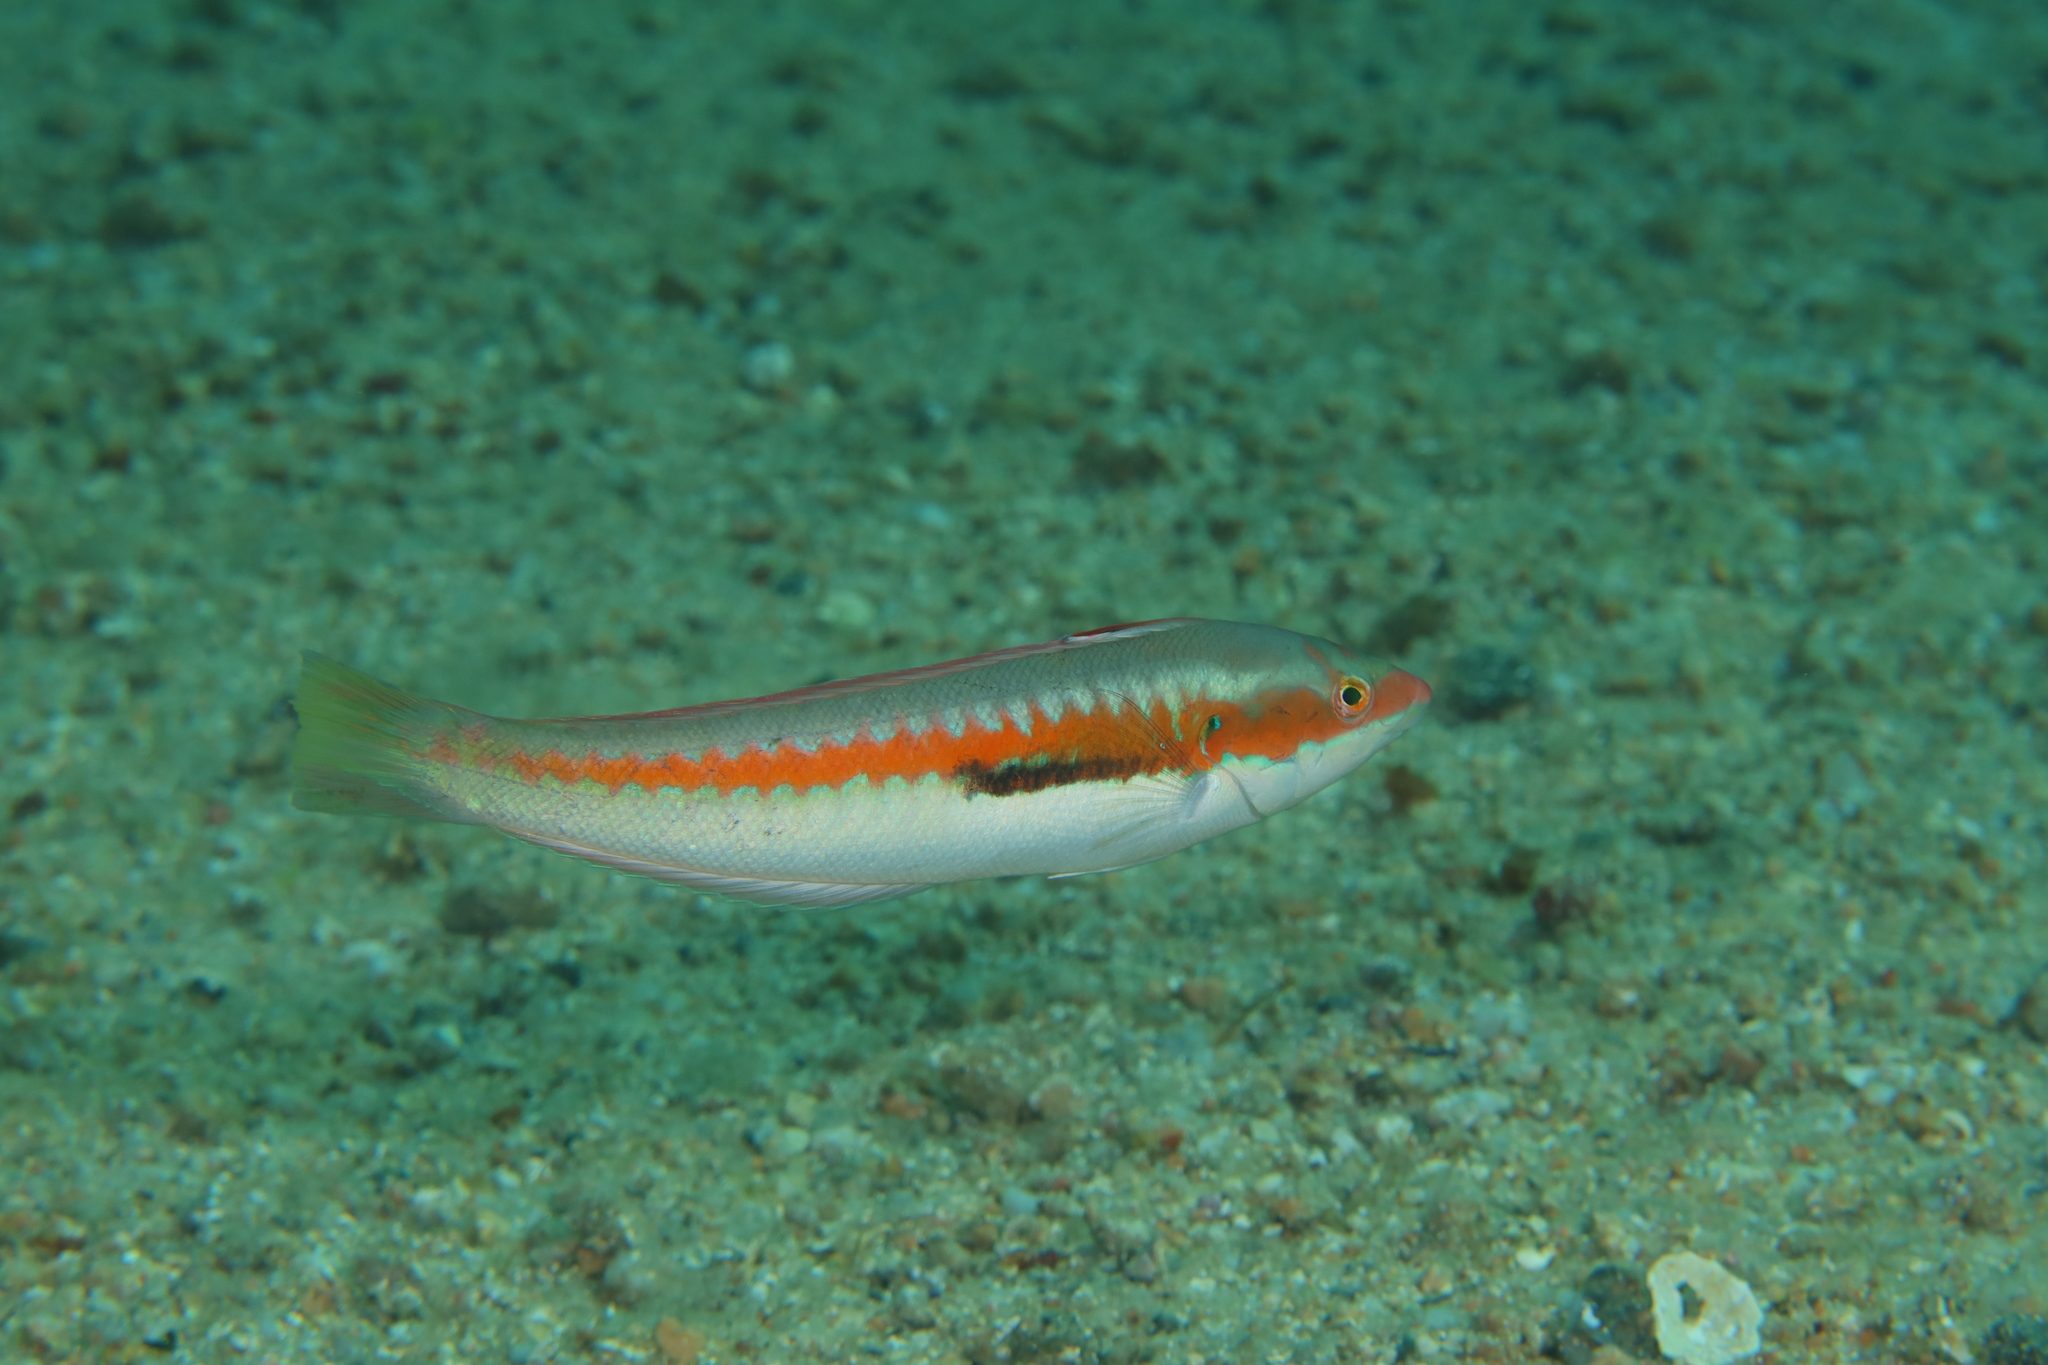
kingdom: Animalia
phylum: Chordata
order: Perciformes
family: Labridae
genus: Coris
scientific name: Coris julis
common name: Rainbow wrasse
